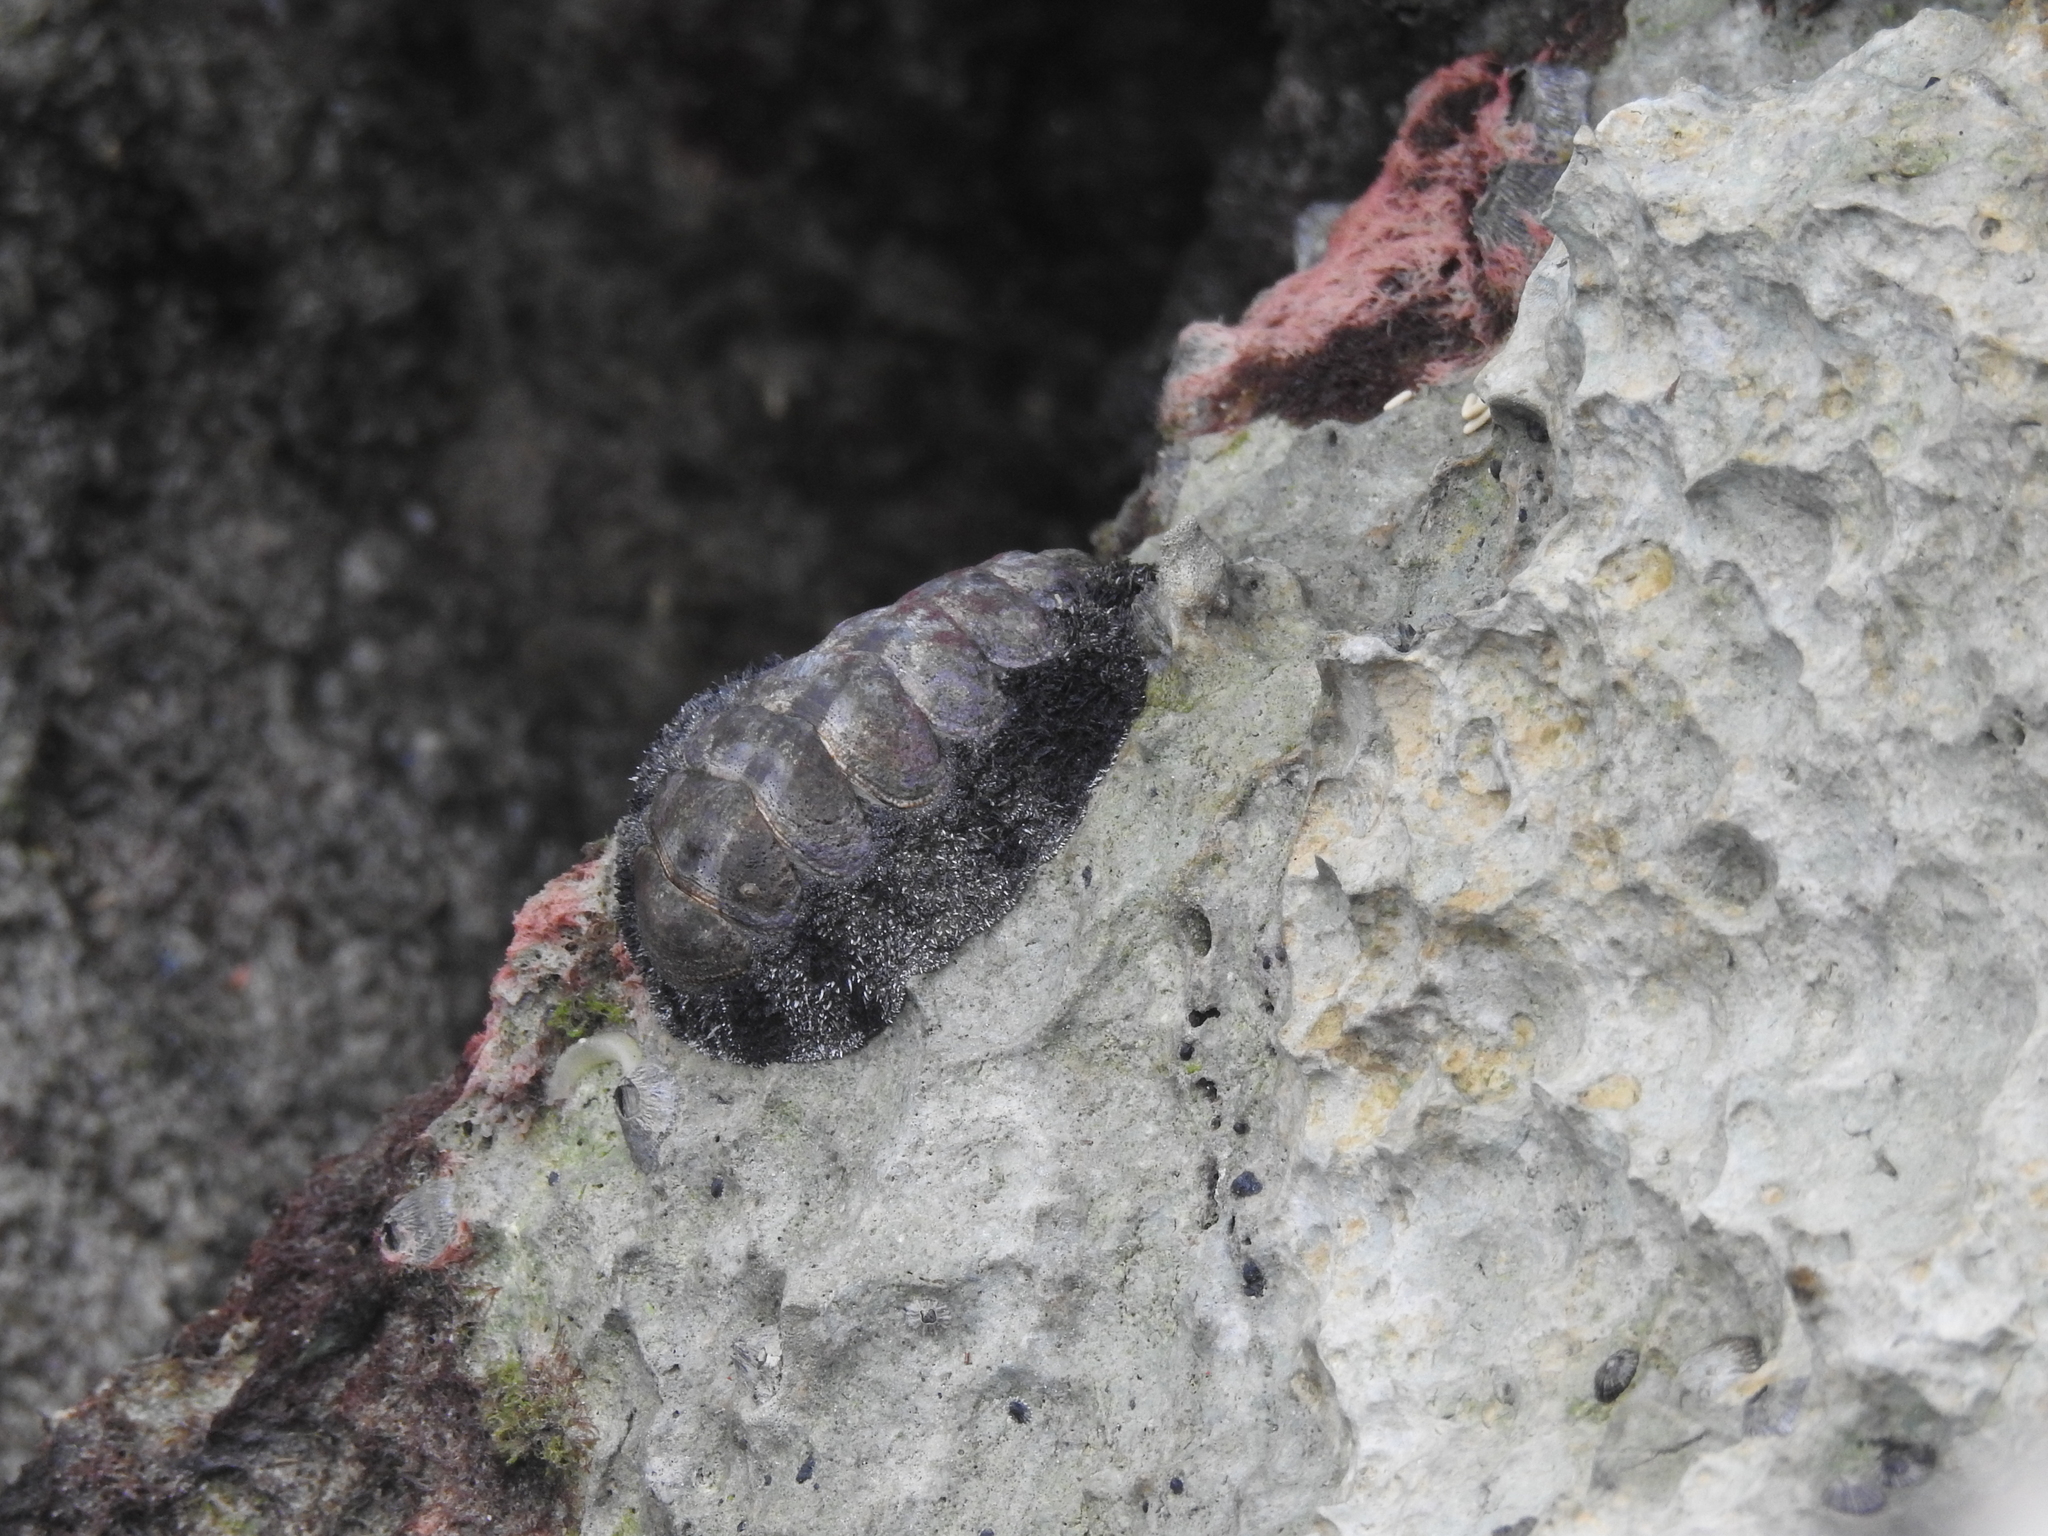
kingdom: Animalia
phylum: Mollusca
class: Polyplacophora
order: Chitonida
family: Chitonidae
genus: Acanthopleura
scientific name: Acanthopleura granulata
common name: West indian fuzzy chiton
